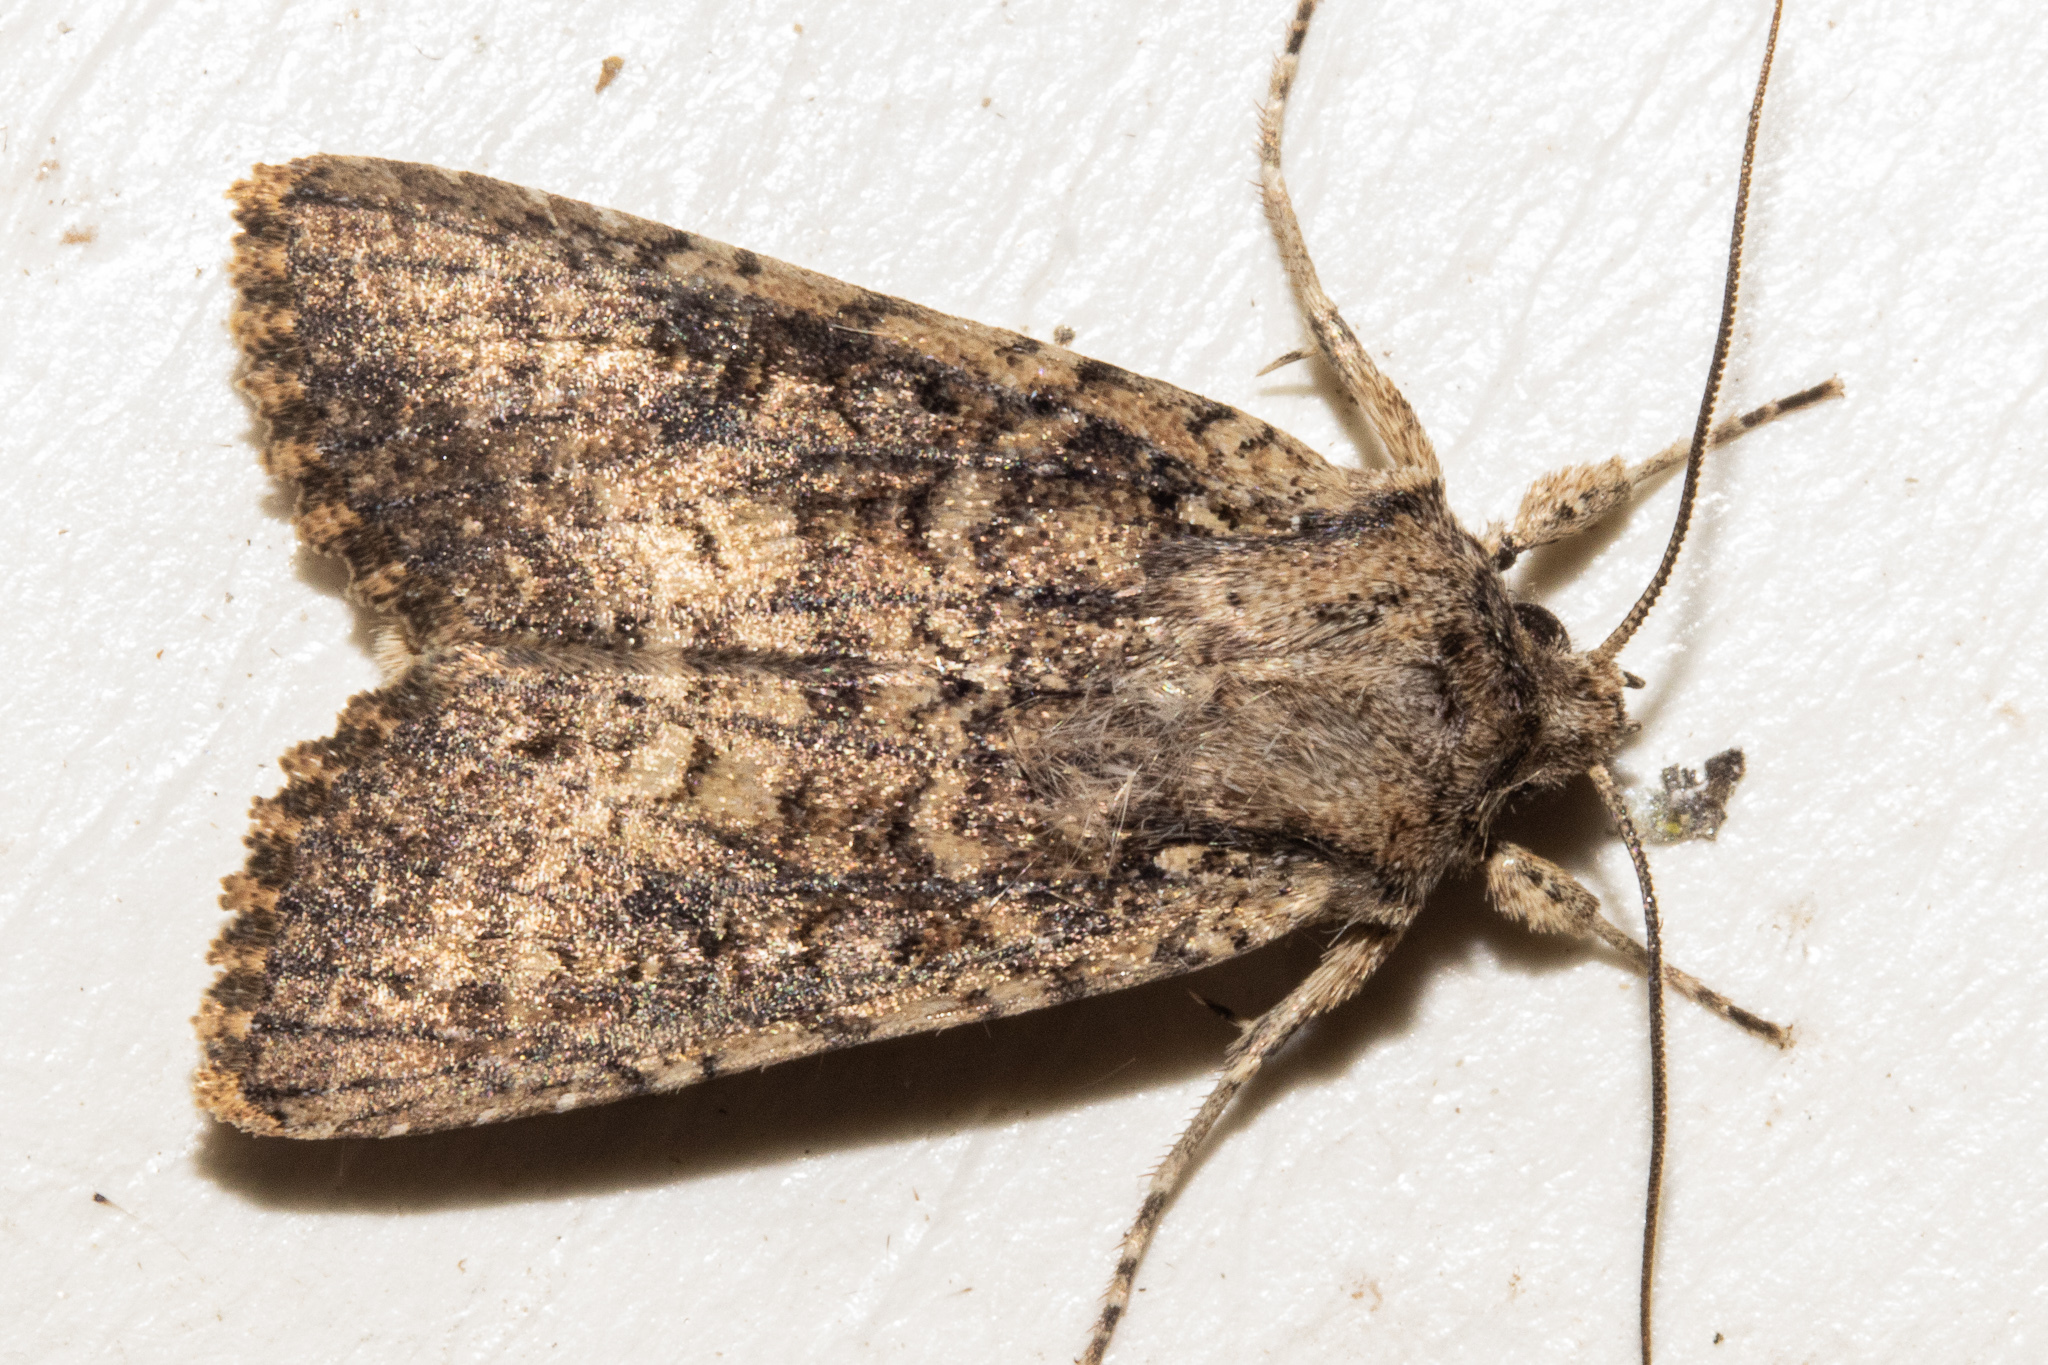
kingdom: Animalia
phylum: Arthropoda
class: Insecta
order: Lepidoptera
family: Noctuidae
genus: Ichneutica
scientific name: Ichneutica morosa
